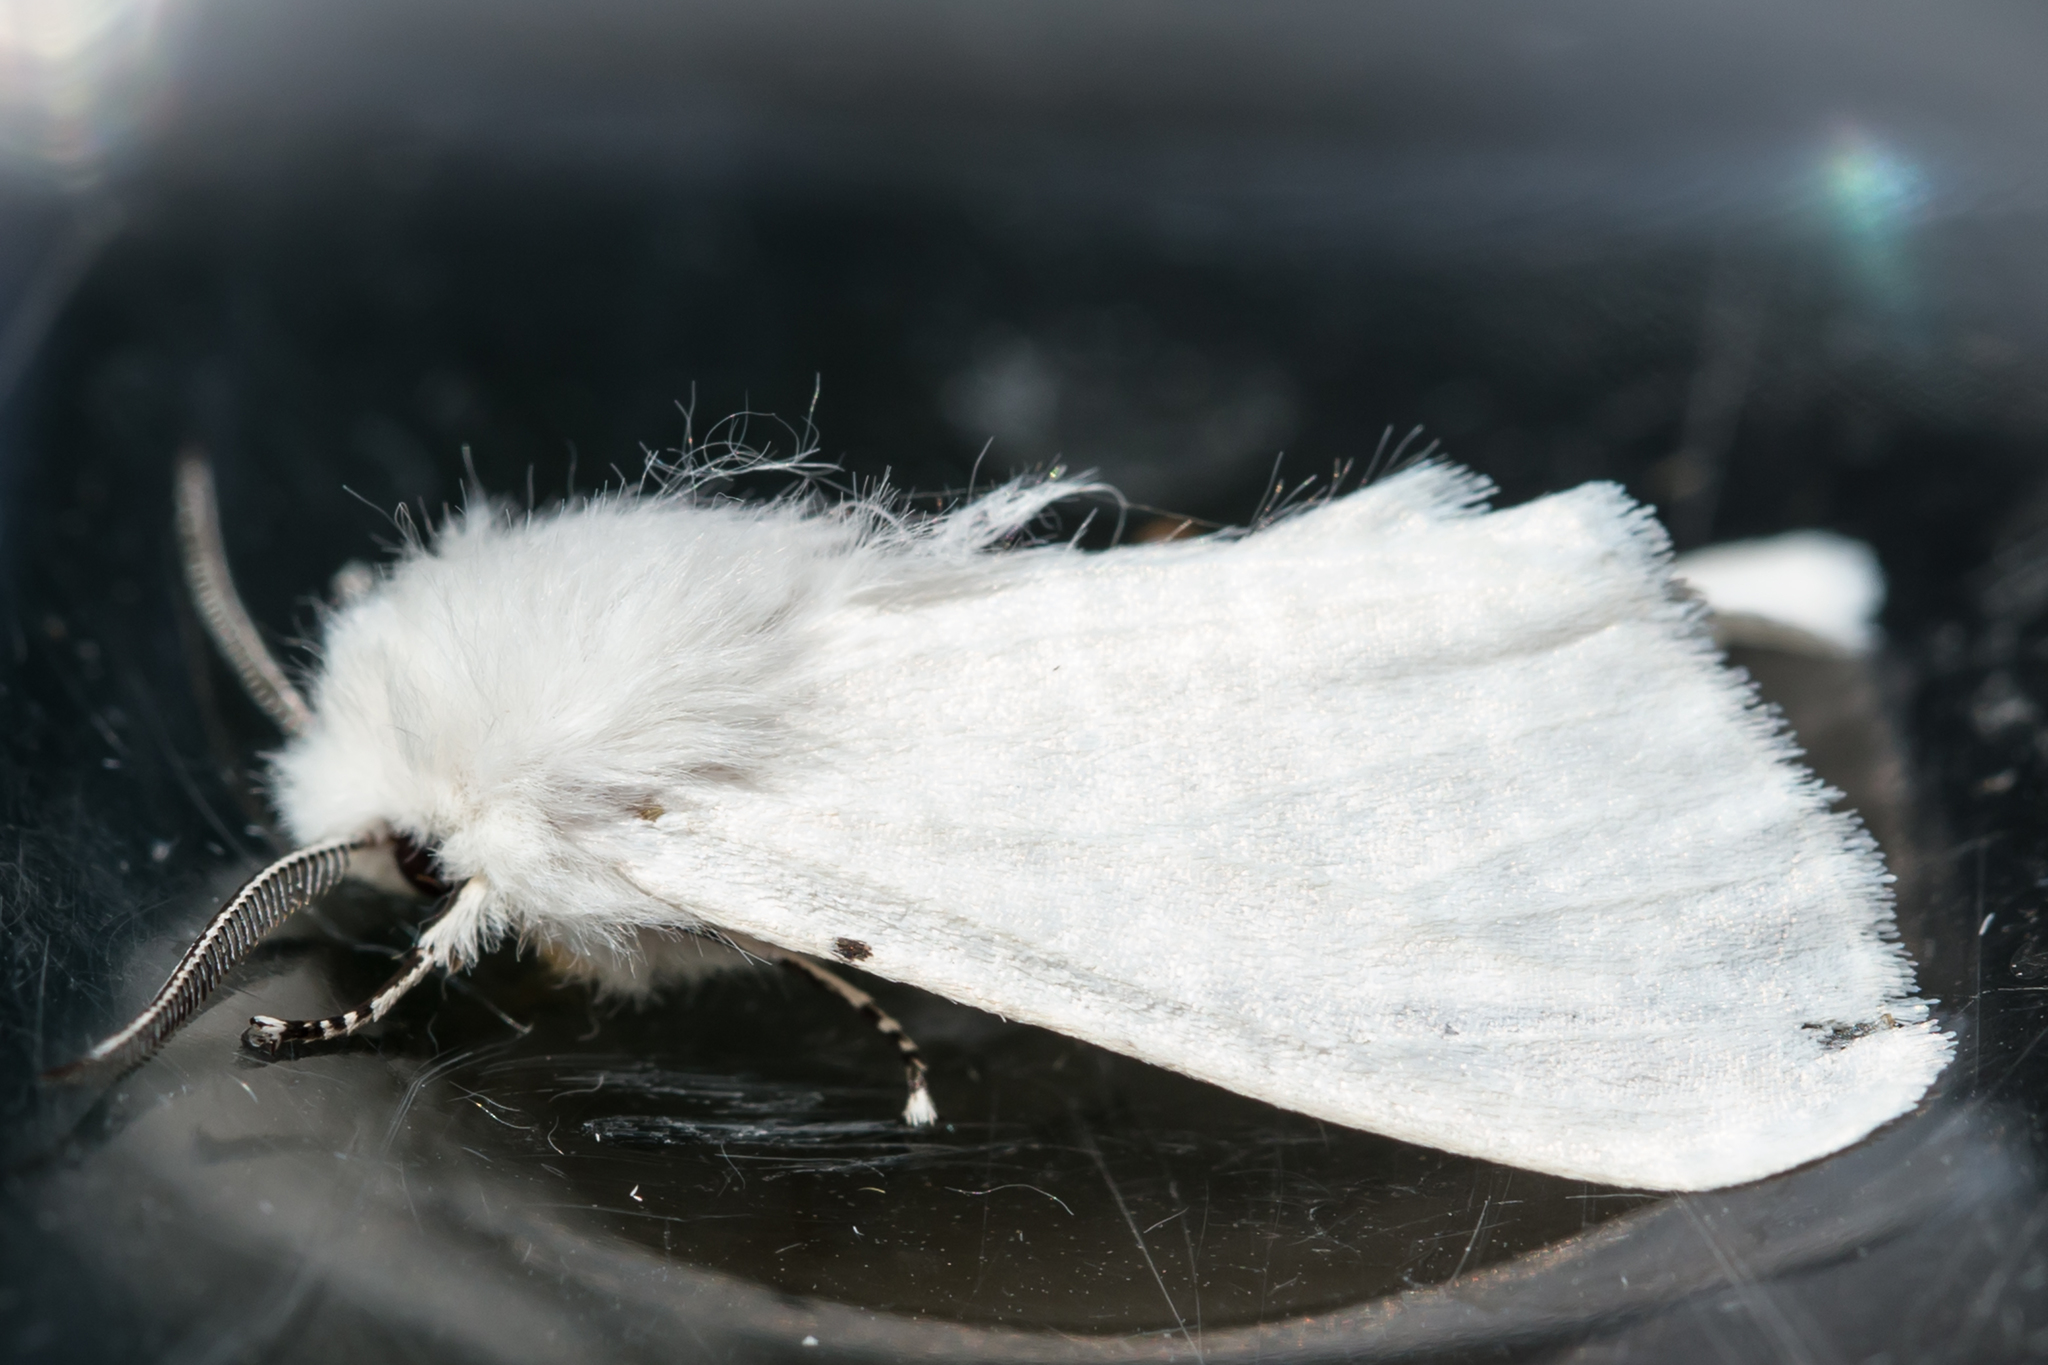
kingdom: Animalia
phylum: Arthropoda
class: Insecta
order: Lepidoptera
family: Erebidae
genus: Hyphantria
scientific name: Hyphantria cunea
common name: American white moth
